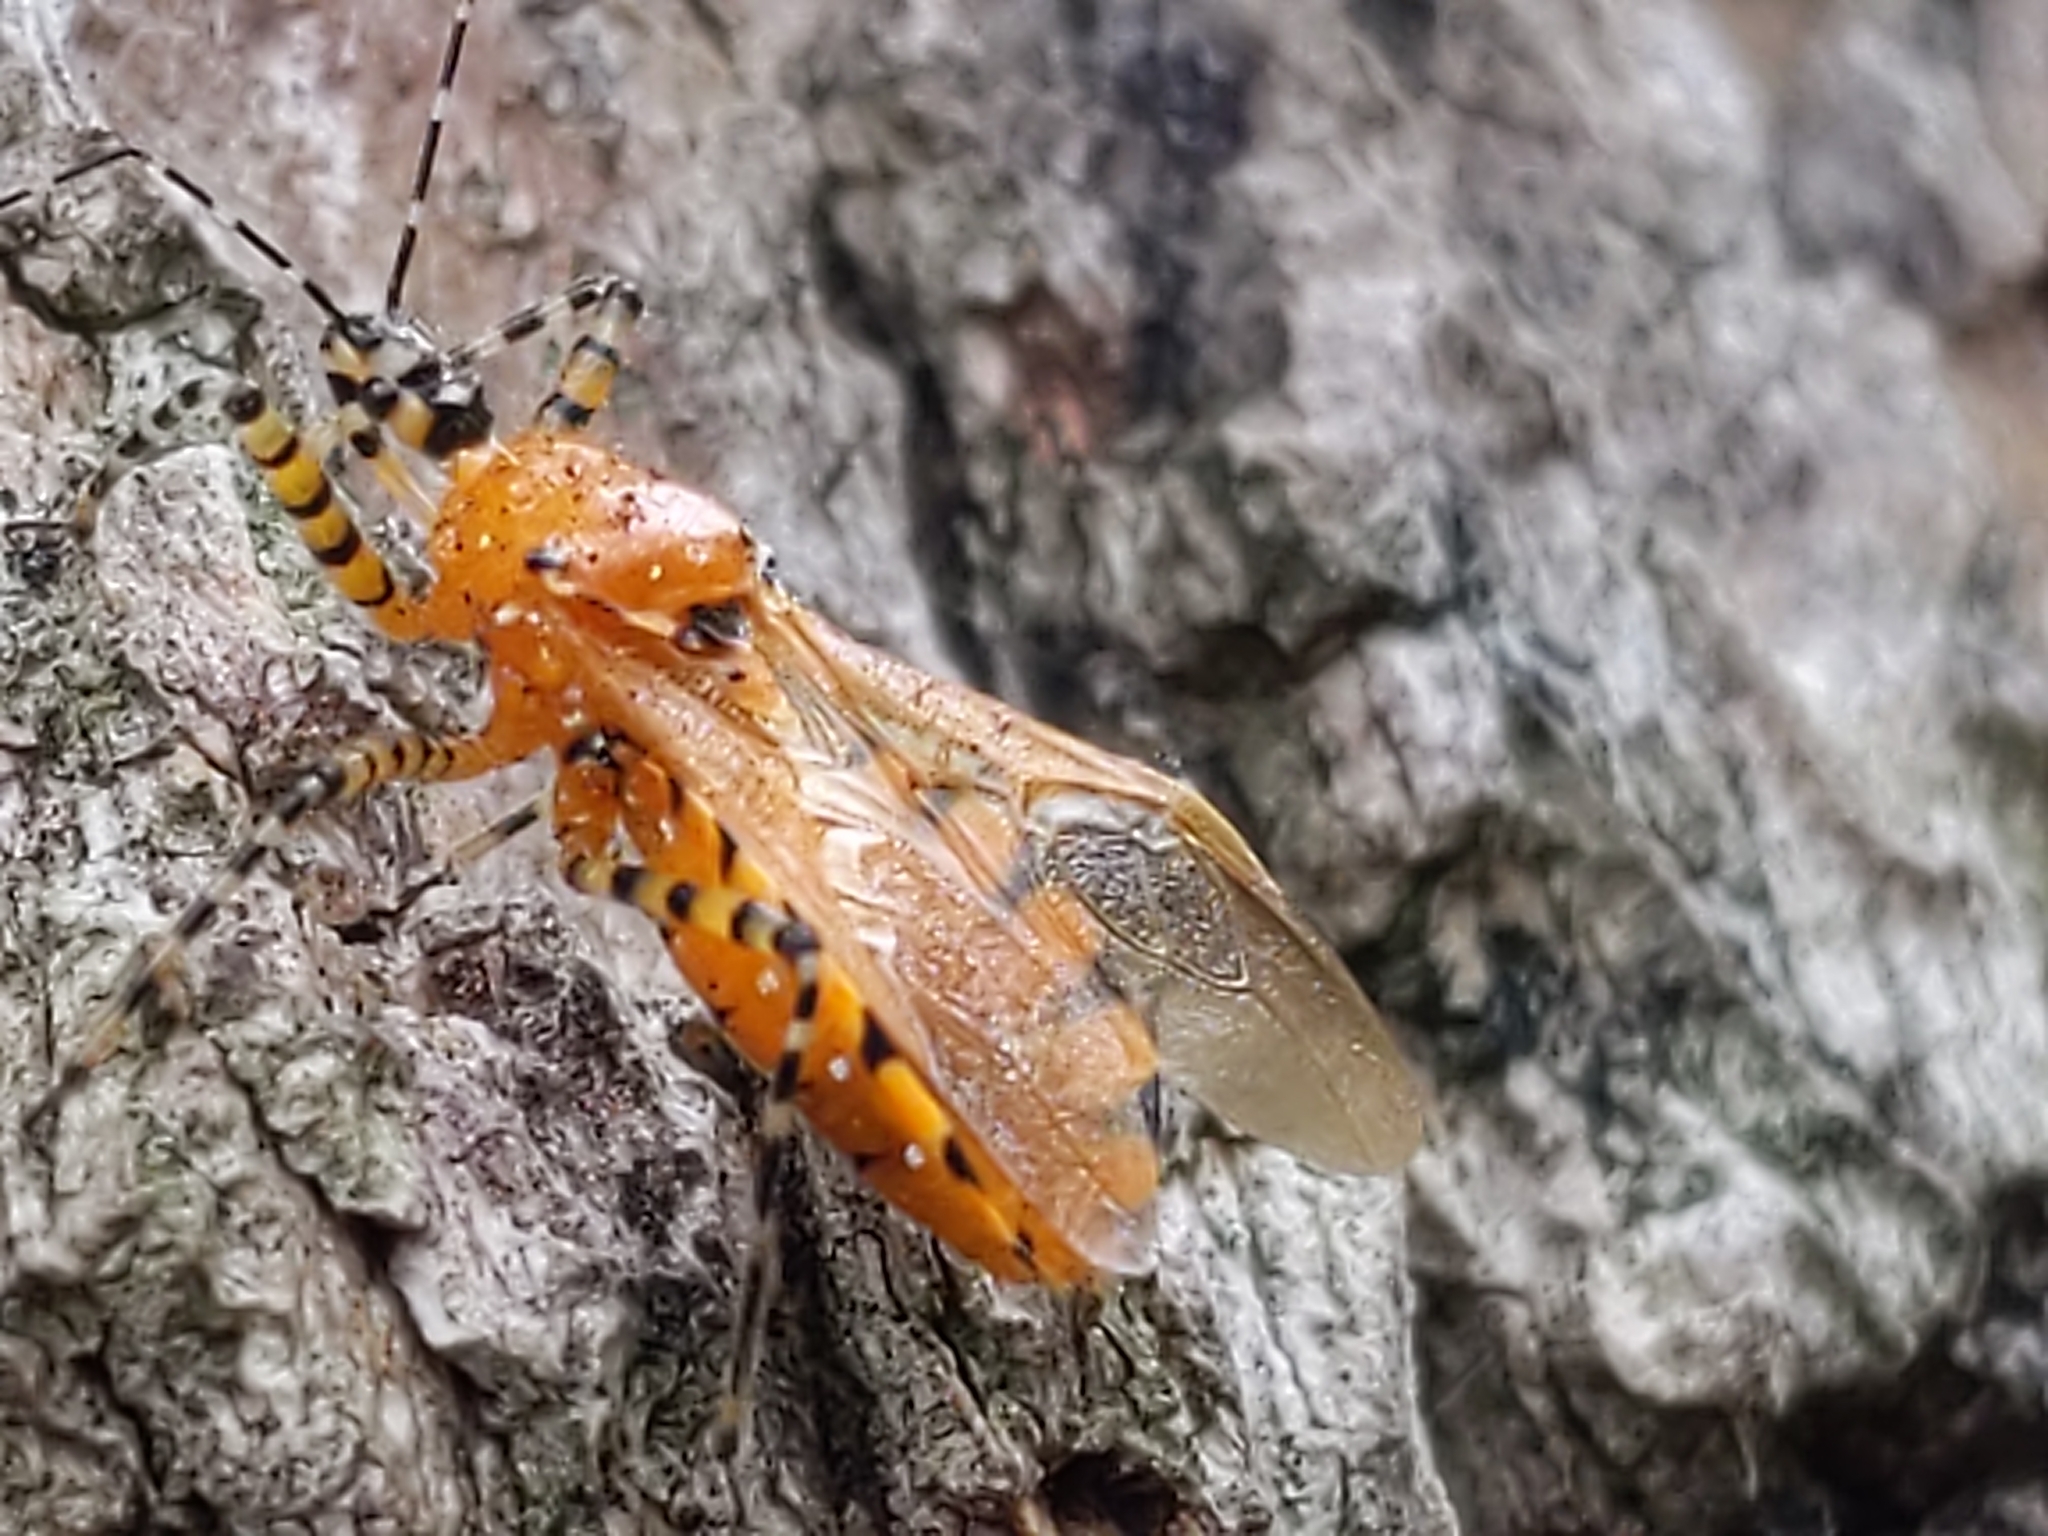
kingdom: Animalia
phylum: Arthropoda
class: Insecta
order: Hemiptera
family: Reduviidae
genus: Pselliopus
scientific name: Pselliopus barberi
